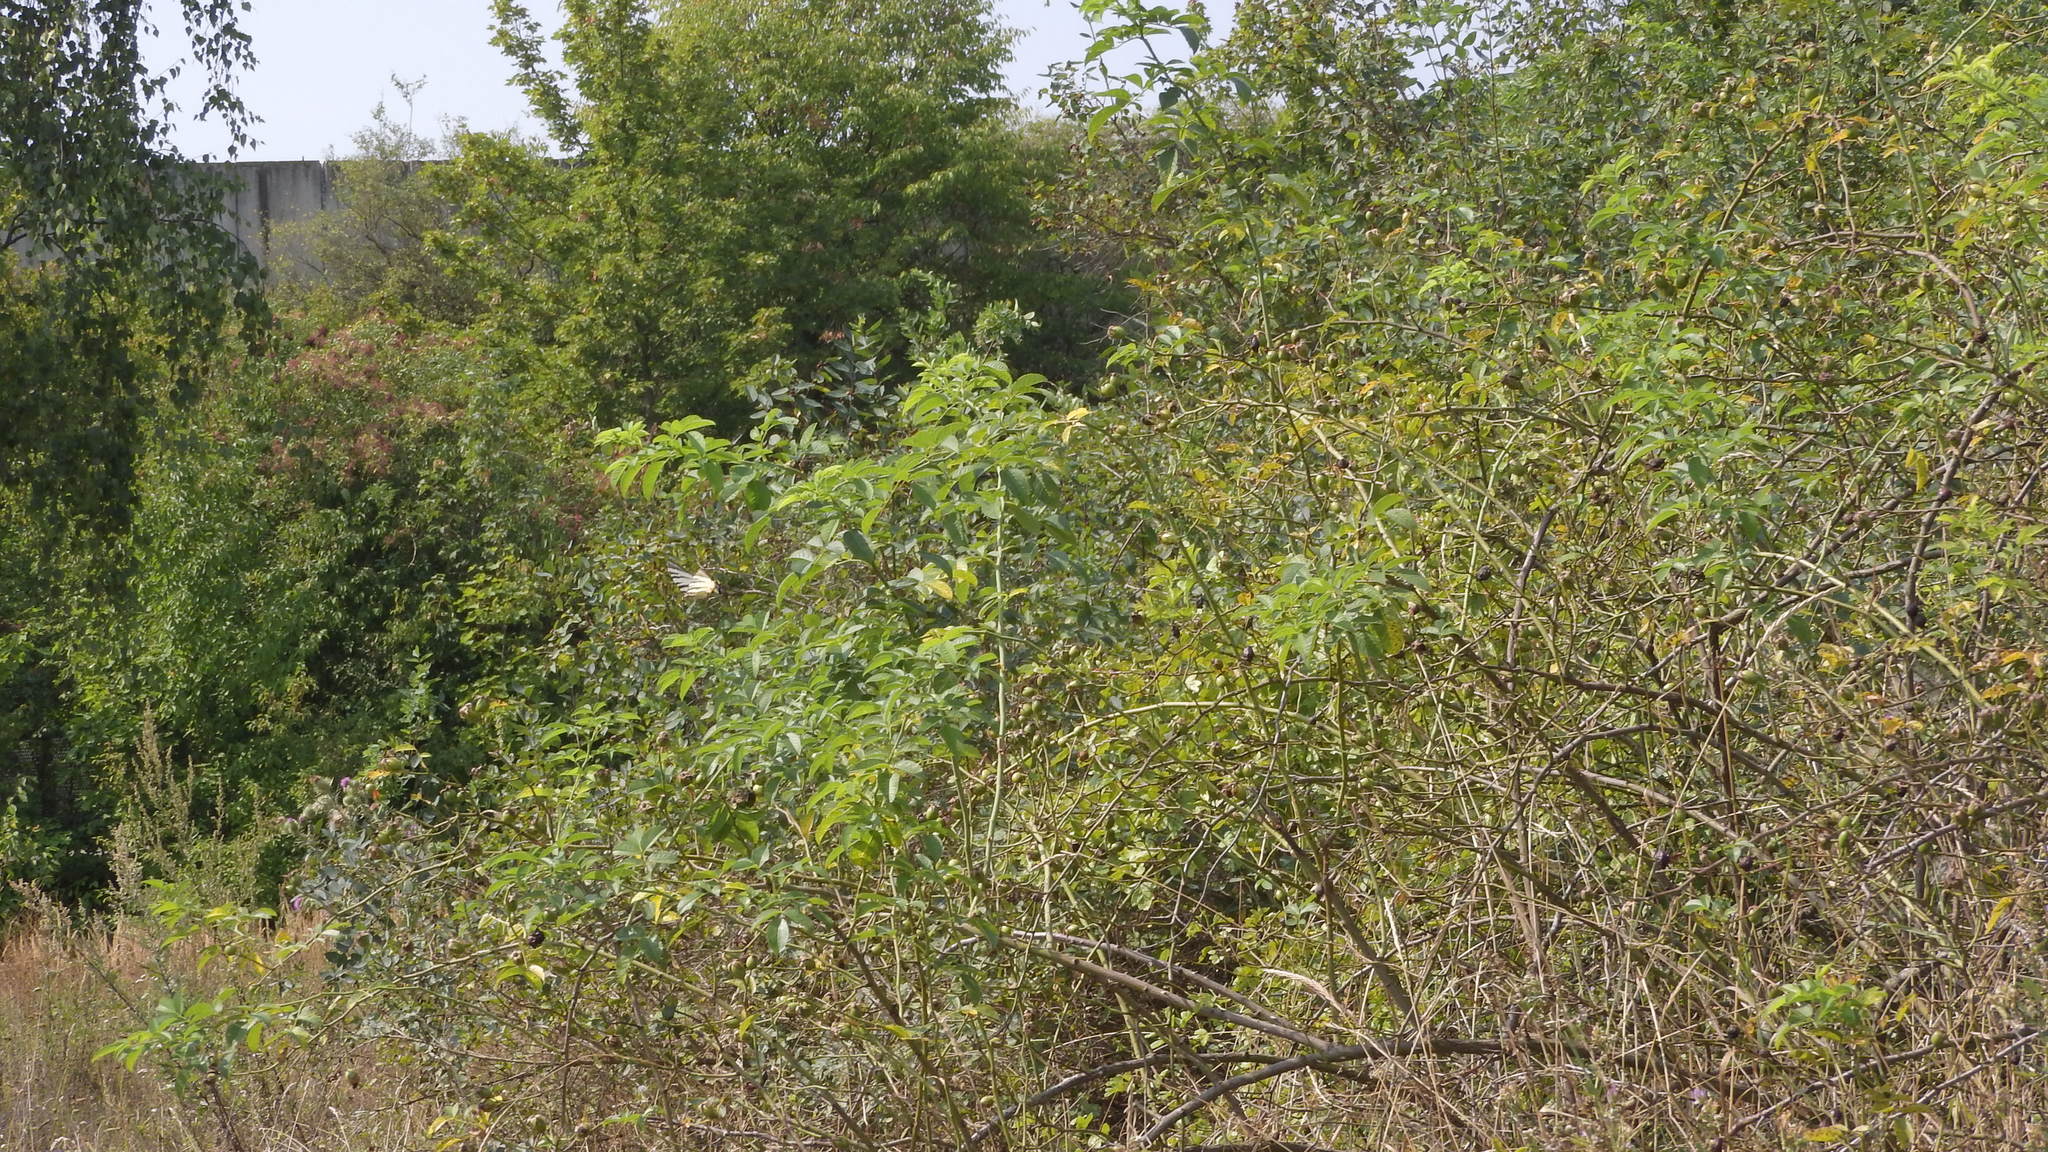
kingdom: Animalia
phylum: Arthropoda
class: Insecta
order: Lepidoptera
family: Papilionidae
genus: Iphiclides
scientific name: Iphiclides podalirius
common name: Scarce swallowtail
